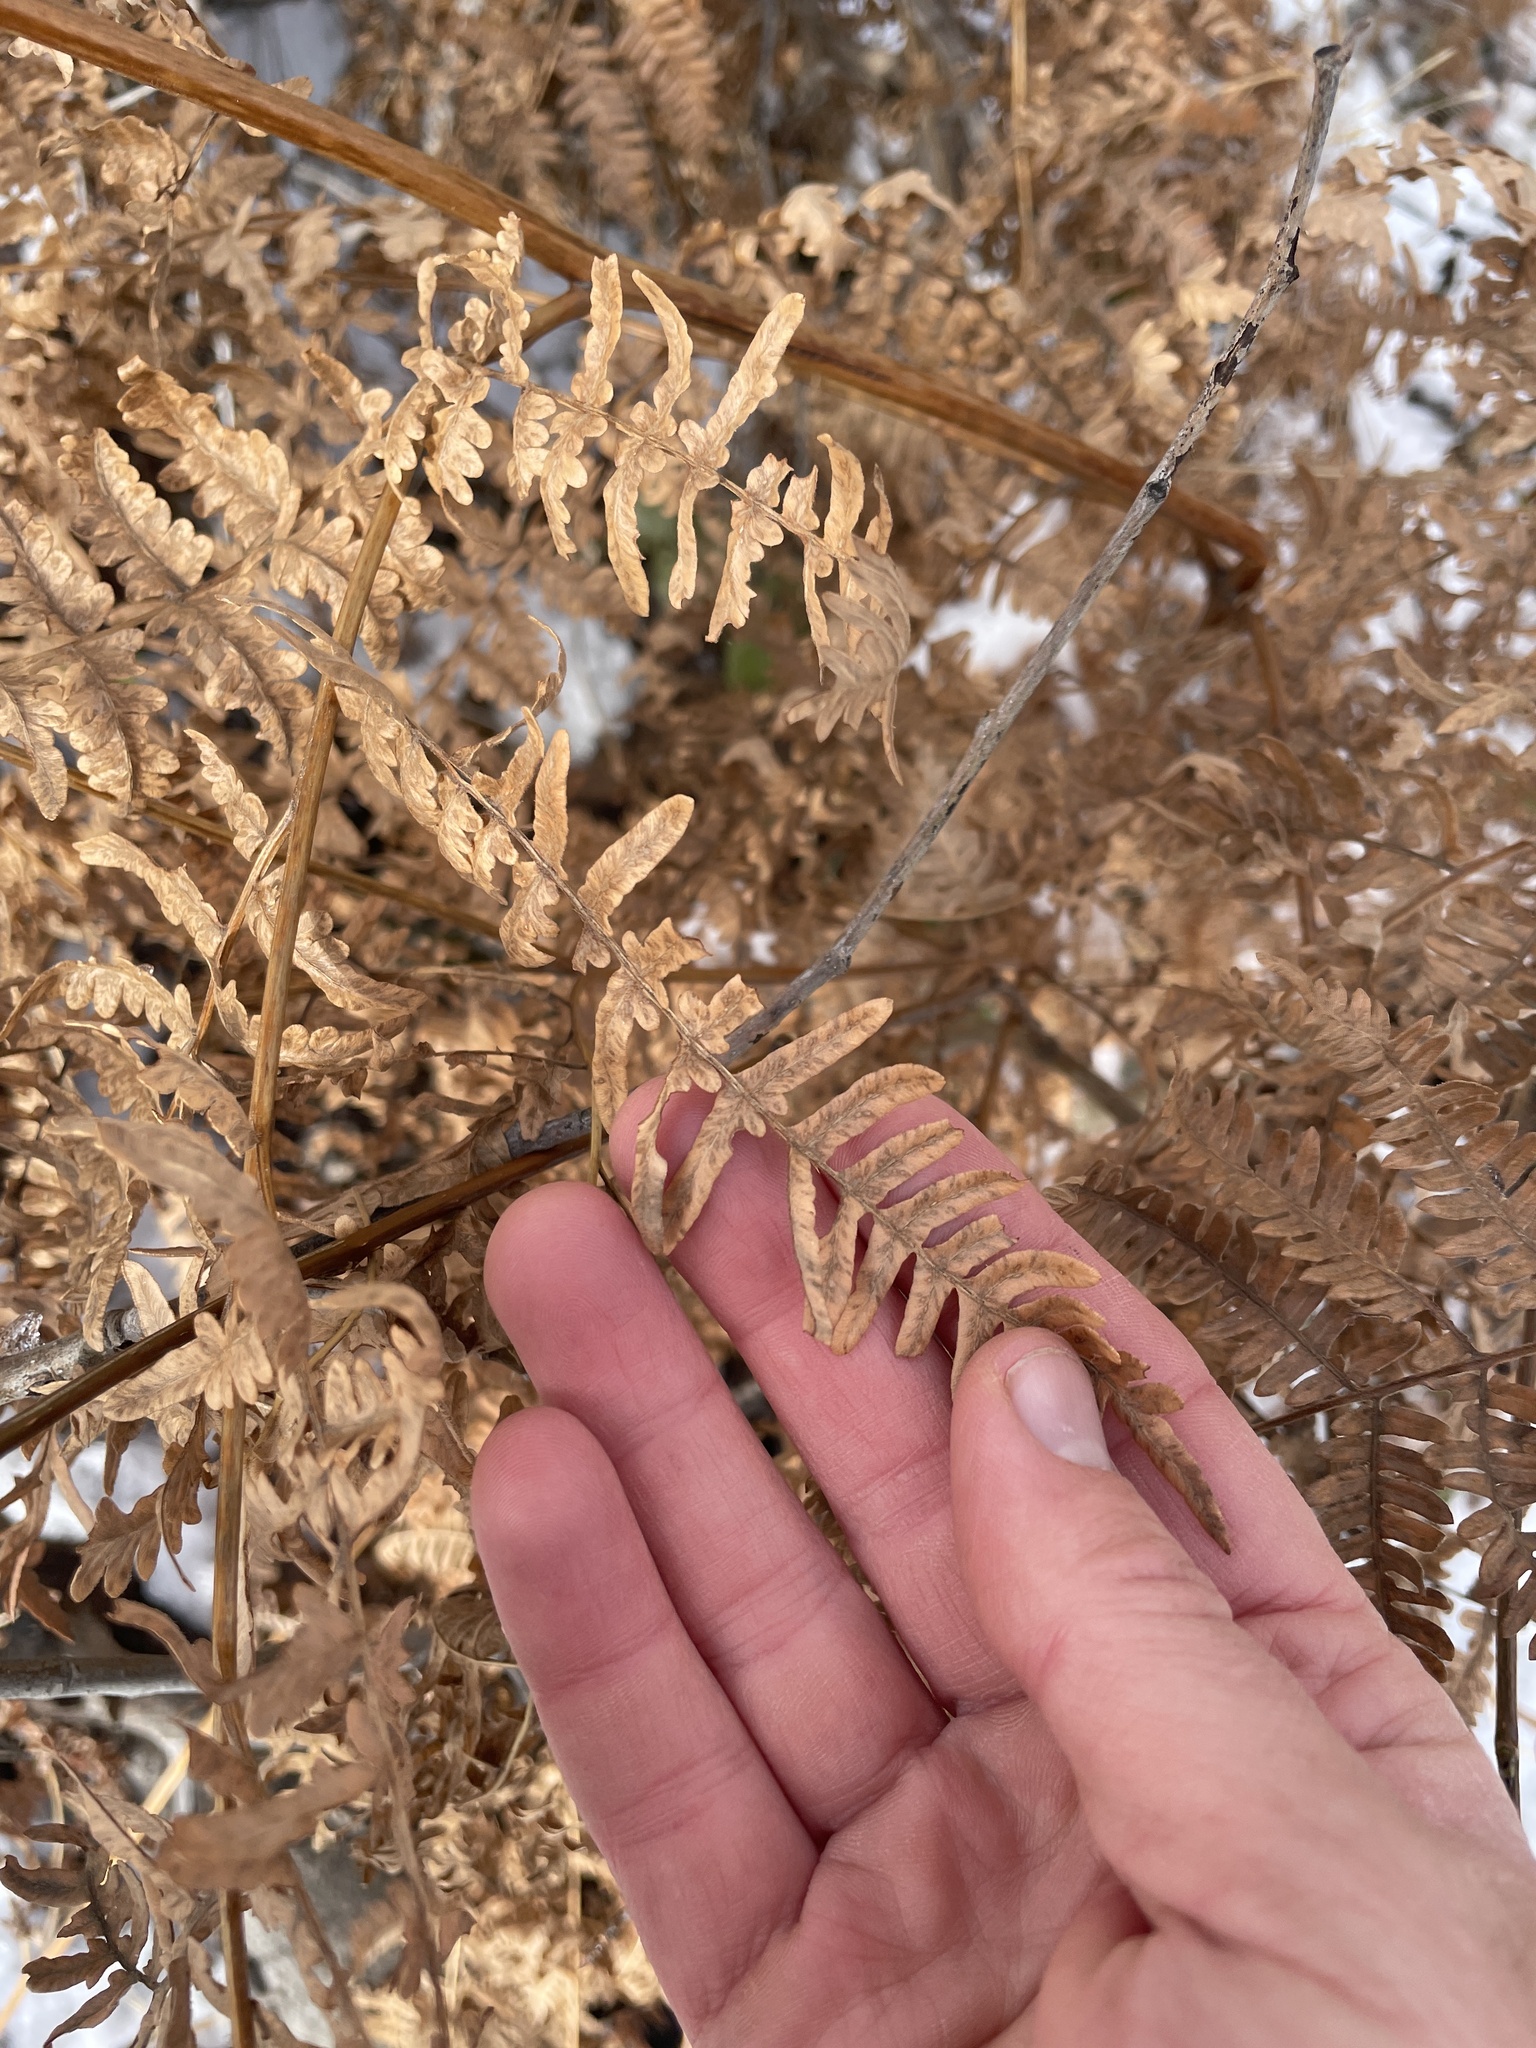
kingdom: Plantae
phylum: Tracheophyta
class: Polypodiopsida
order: Polypodiales
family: Dennstaedtiaceae
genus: Pteridium
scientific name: Pteridium aquilinum
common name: Bracken
